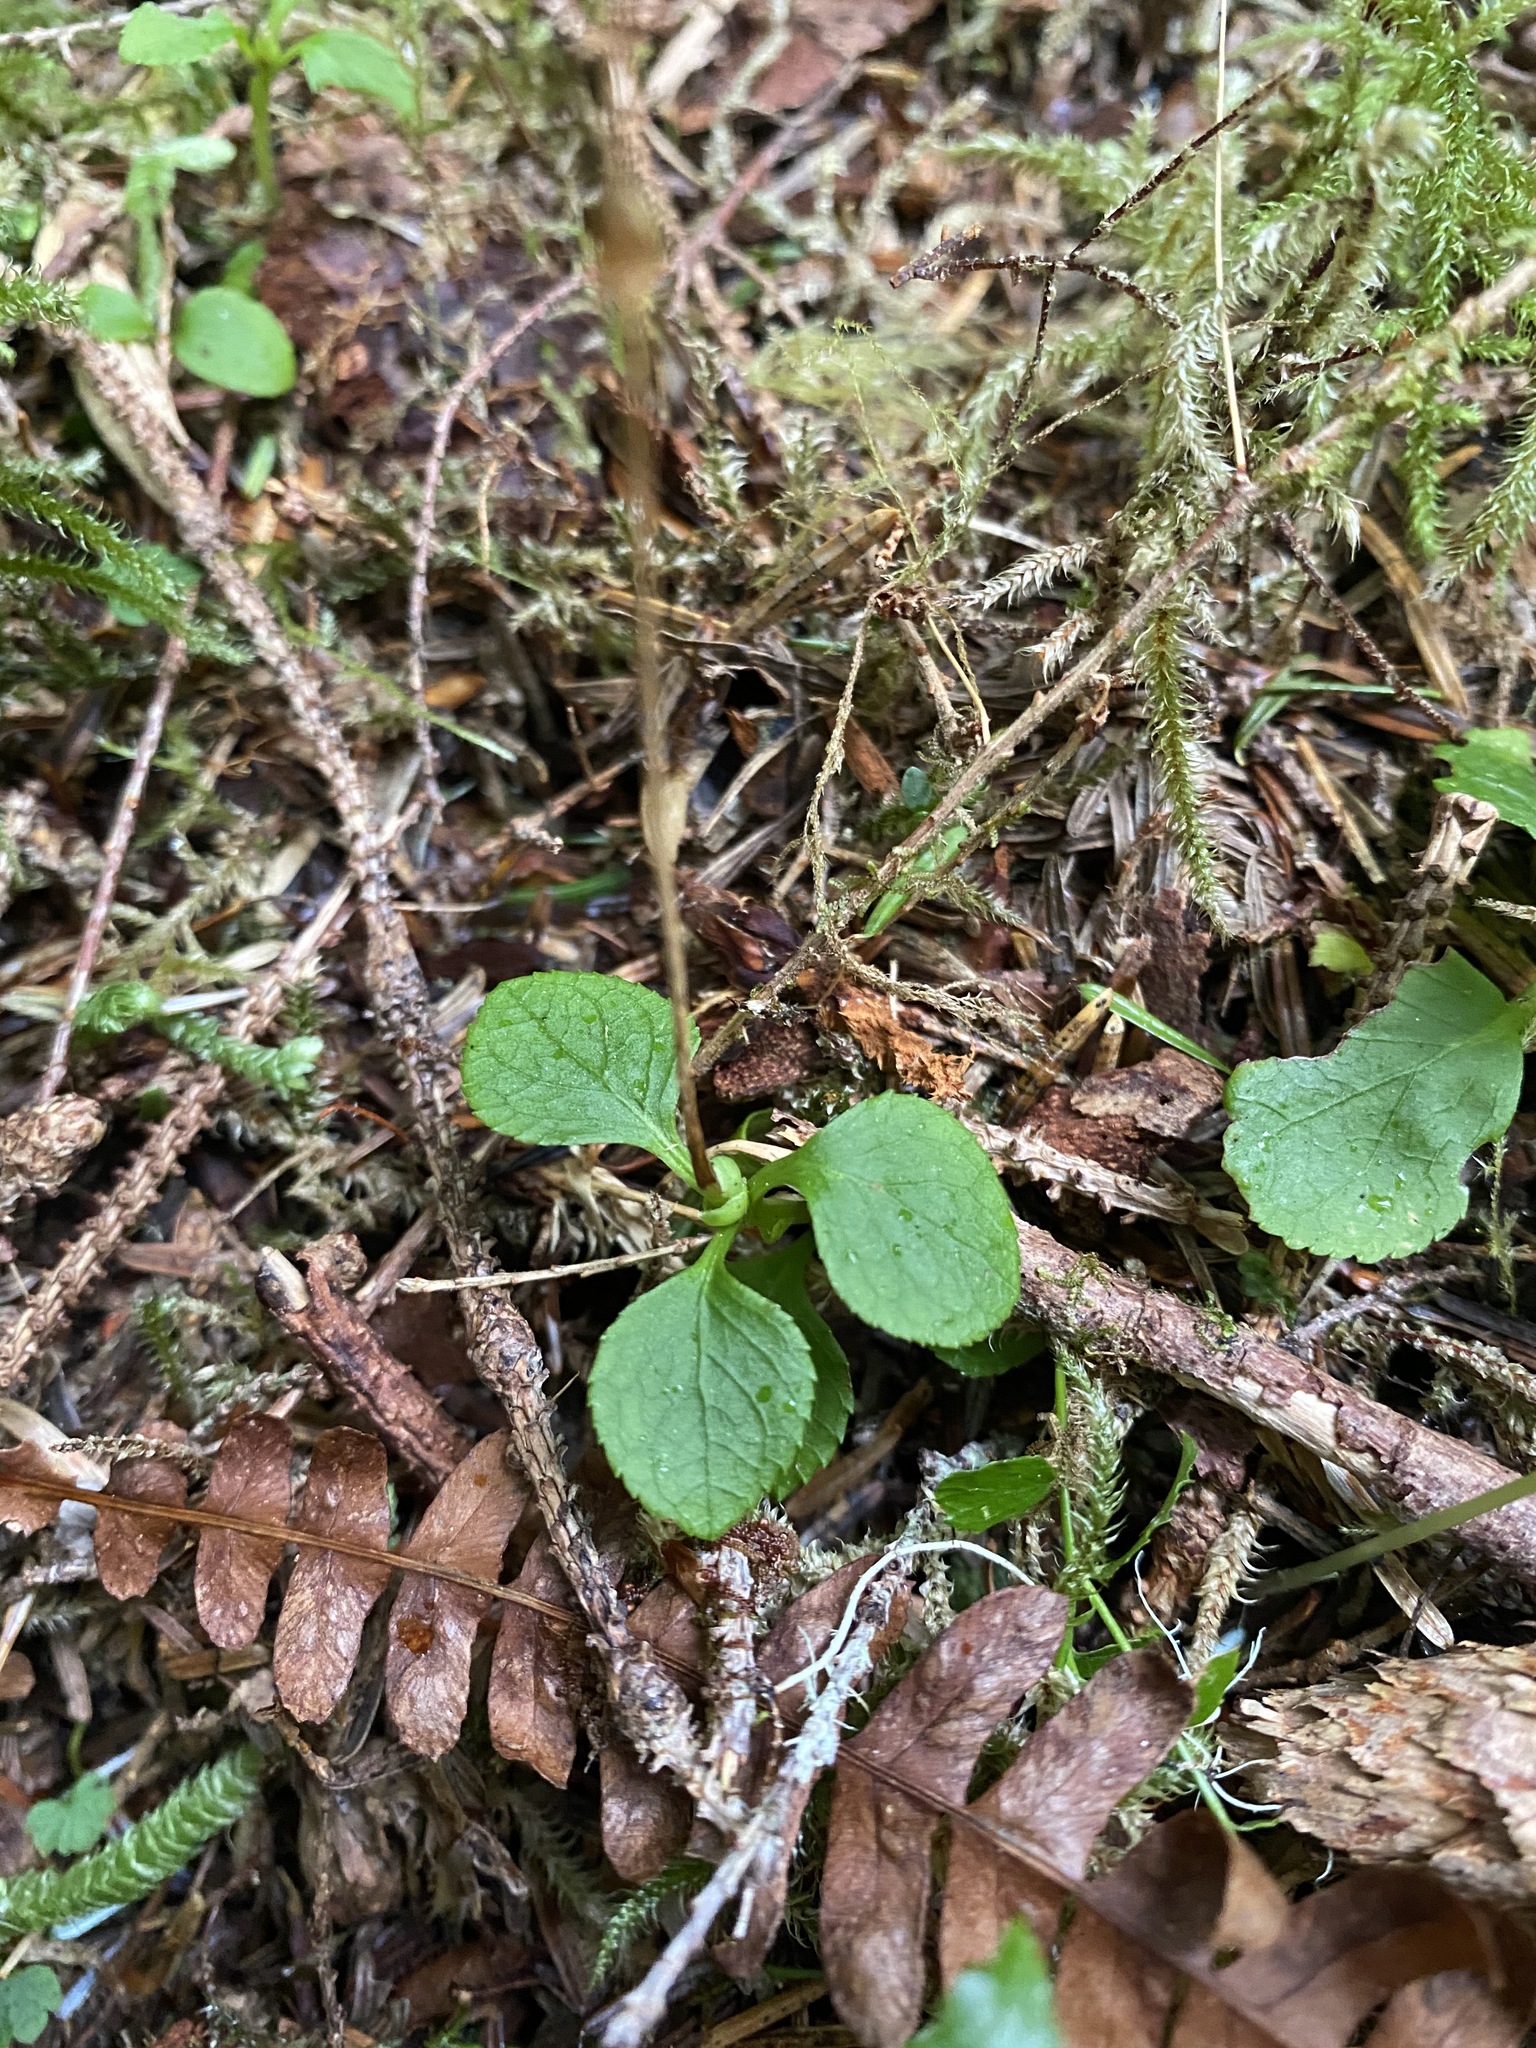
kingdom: Plantae
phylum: Tracheophyta
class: Magnoliopsida
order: Ericales
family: Ericaceae
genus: Moneses
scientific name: Moneses uniflora
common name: One-flowered wintergreen
